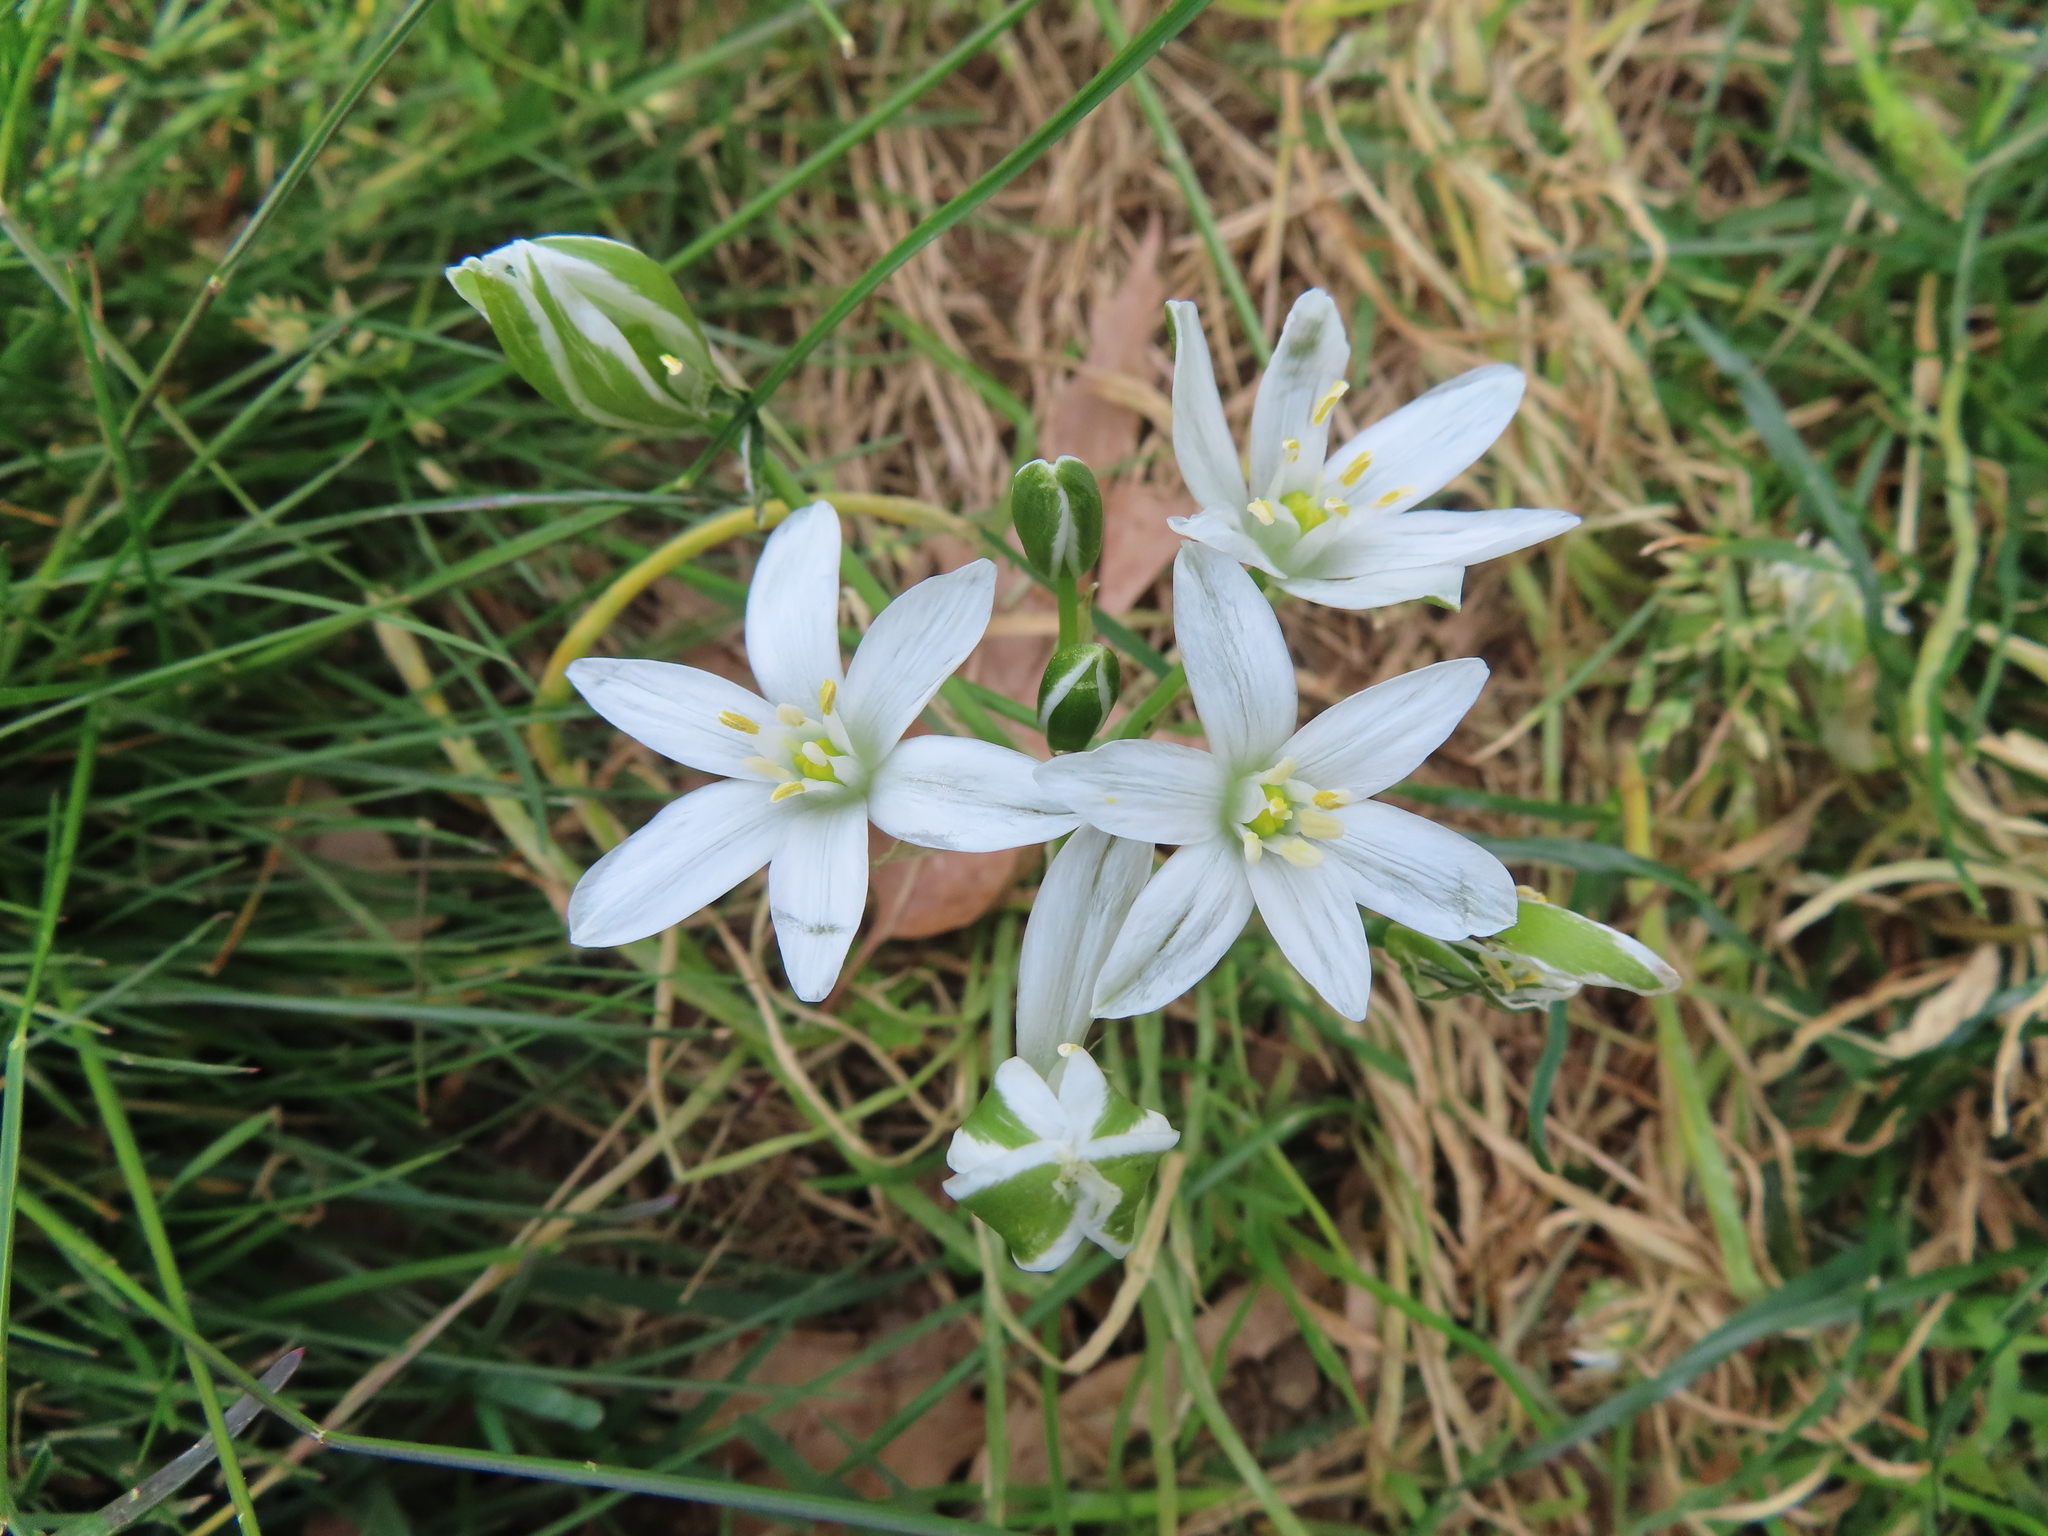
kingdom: Plantae
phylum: Tracheophyta
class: Liliopsida
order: Asparagales
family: Asparagaceae
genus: Ornithogalum
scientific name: Ornithogalum umbellatum
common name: Garden star-of-bethlehem
